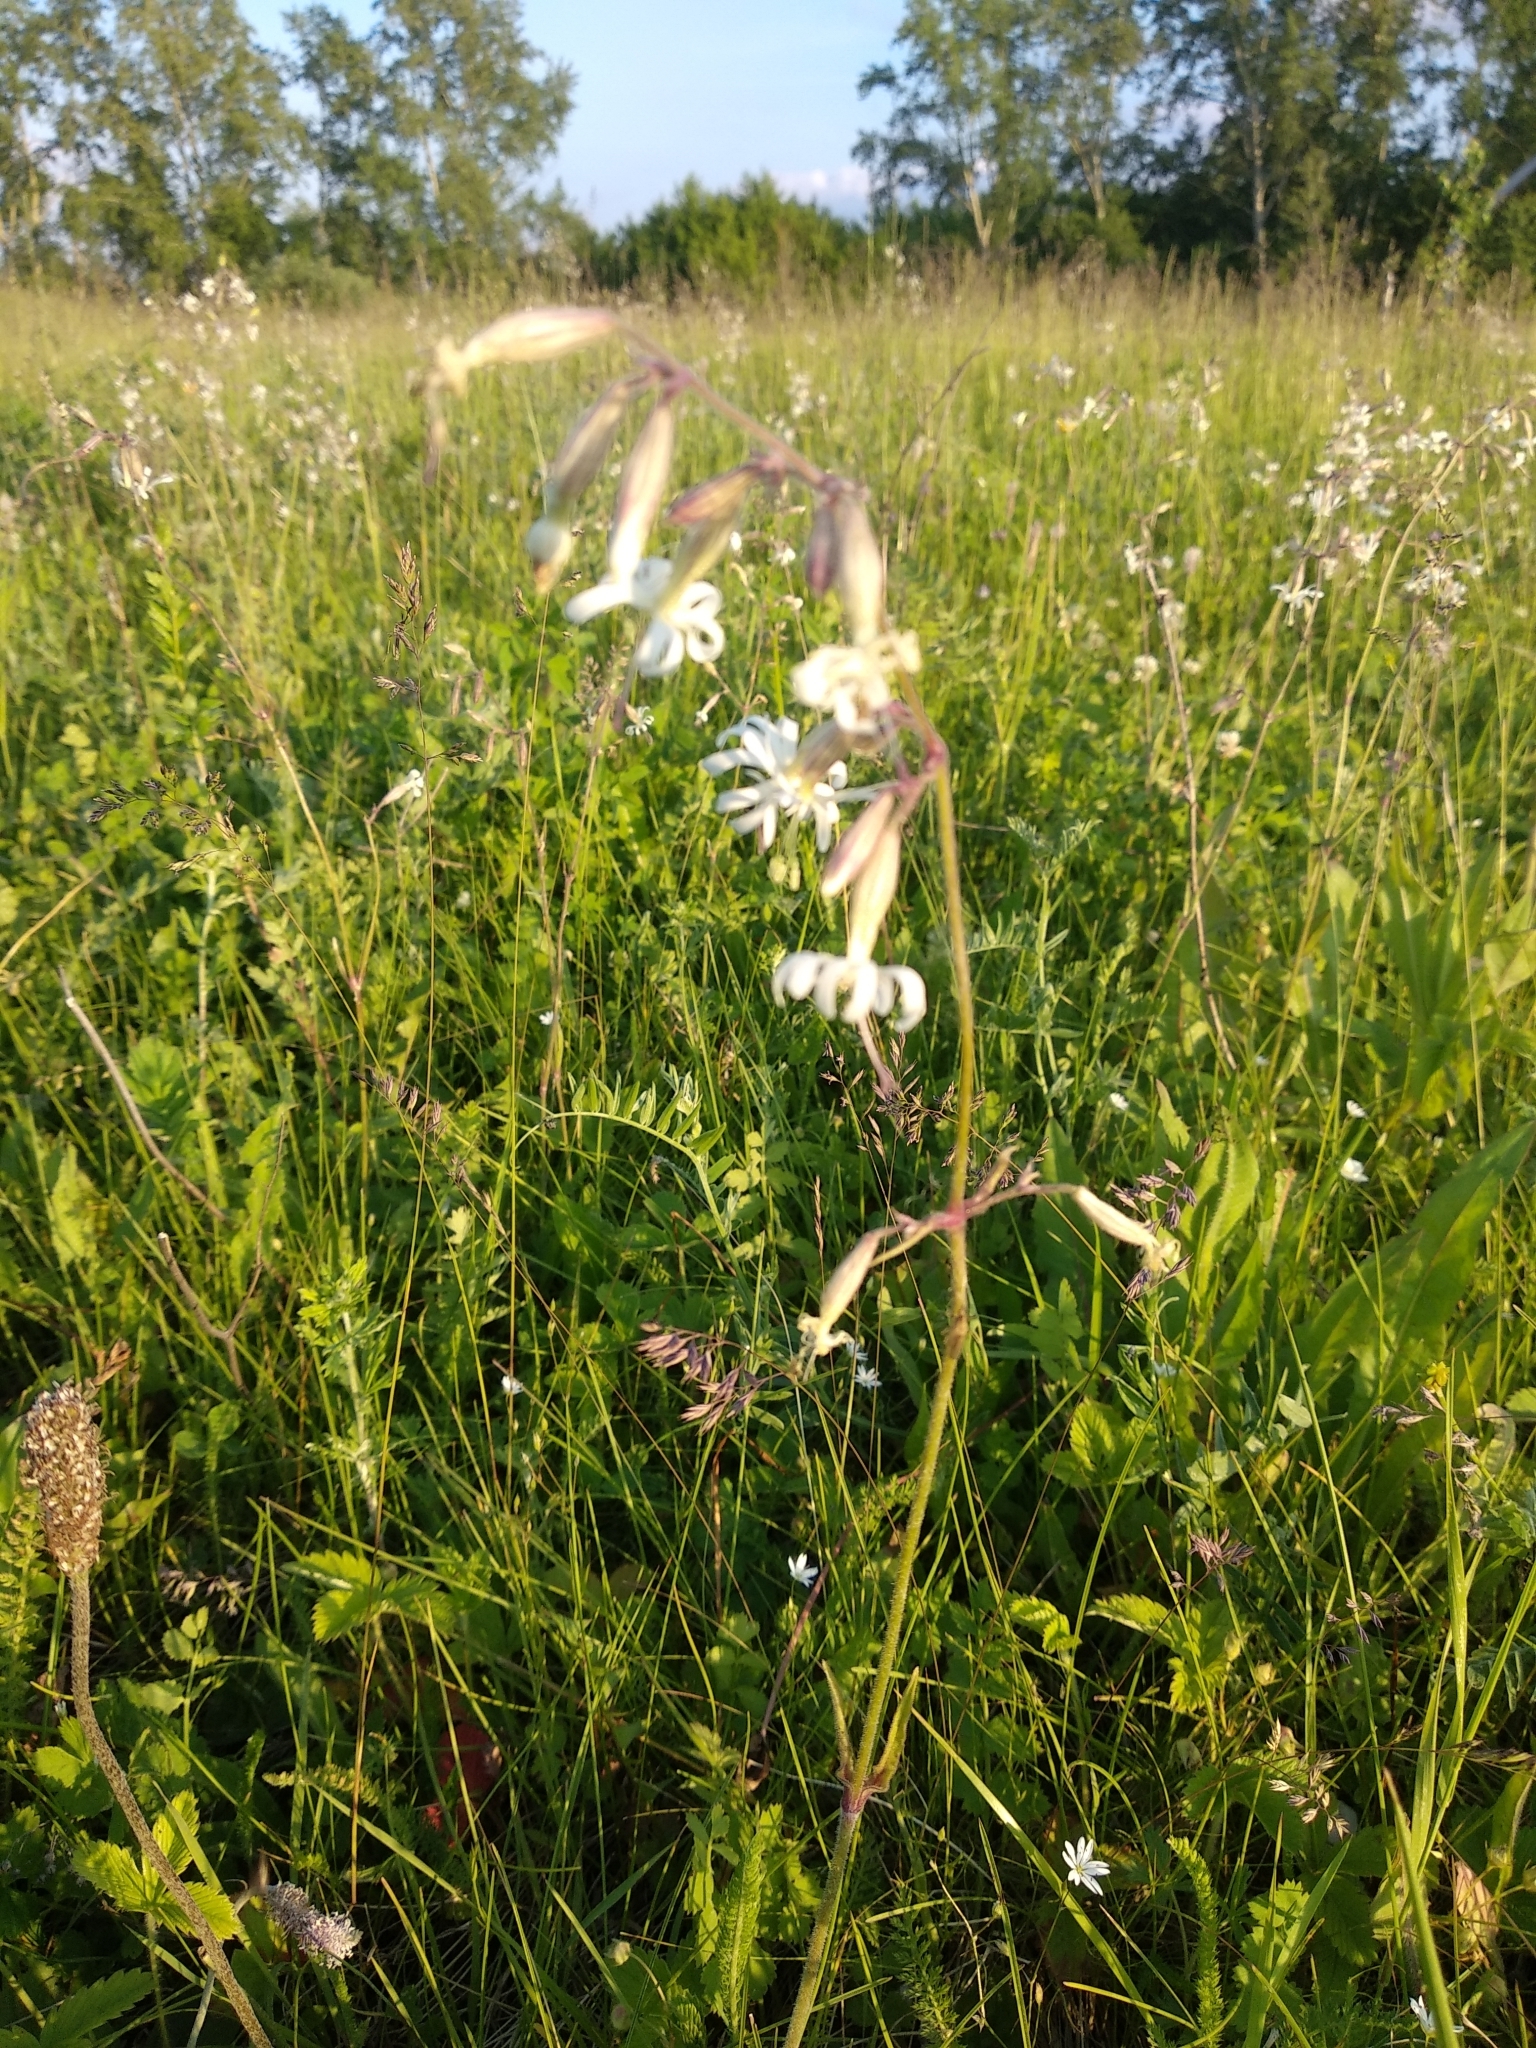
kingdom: Plantae
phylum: Tracheophyta
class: Magnoliopsida
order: Caryophyllales
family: Caryophyllaceae
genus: Silene
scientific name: Silene nutans
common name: Nottingham catchfly
